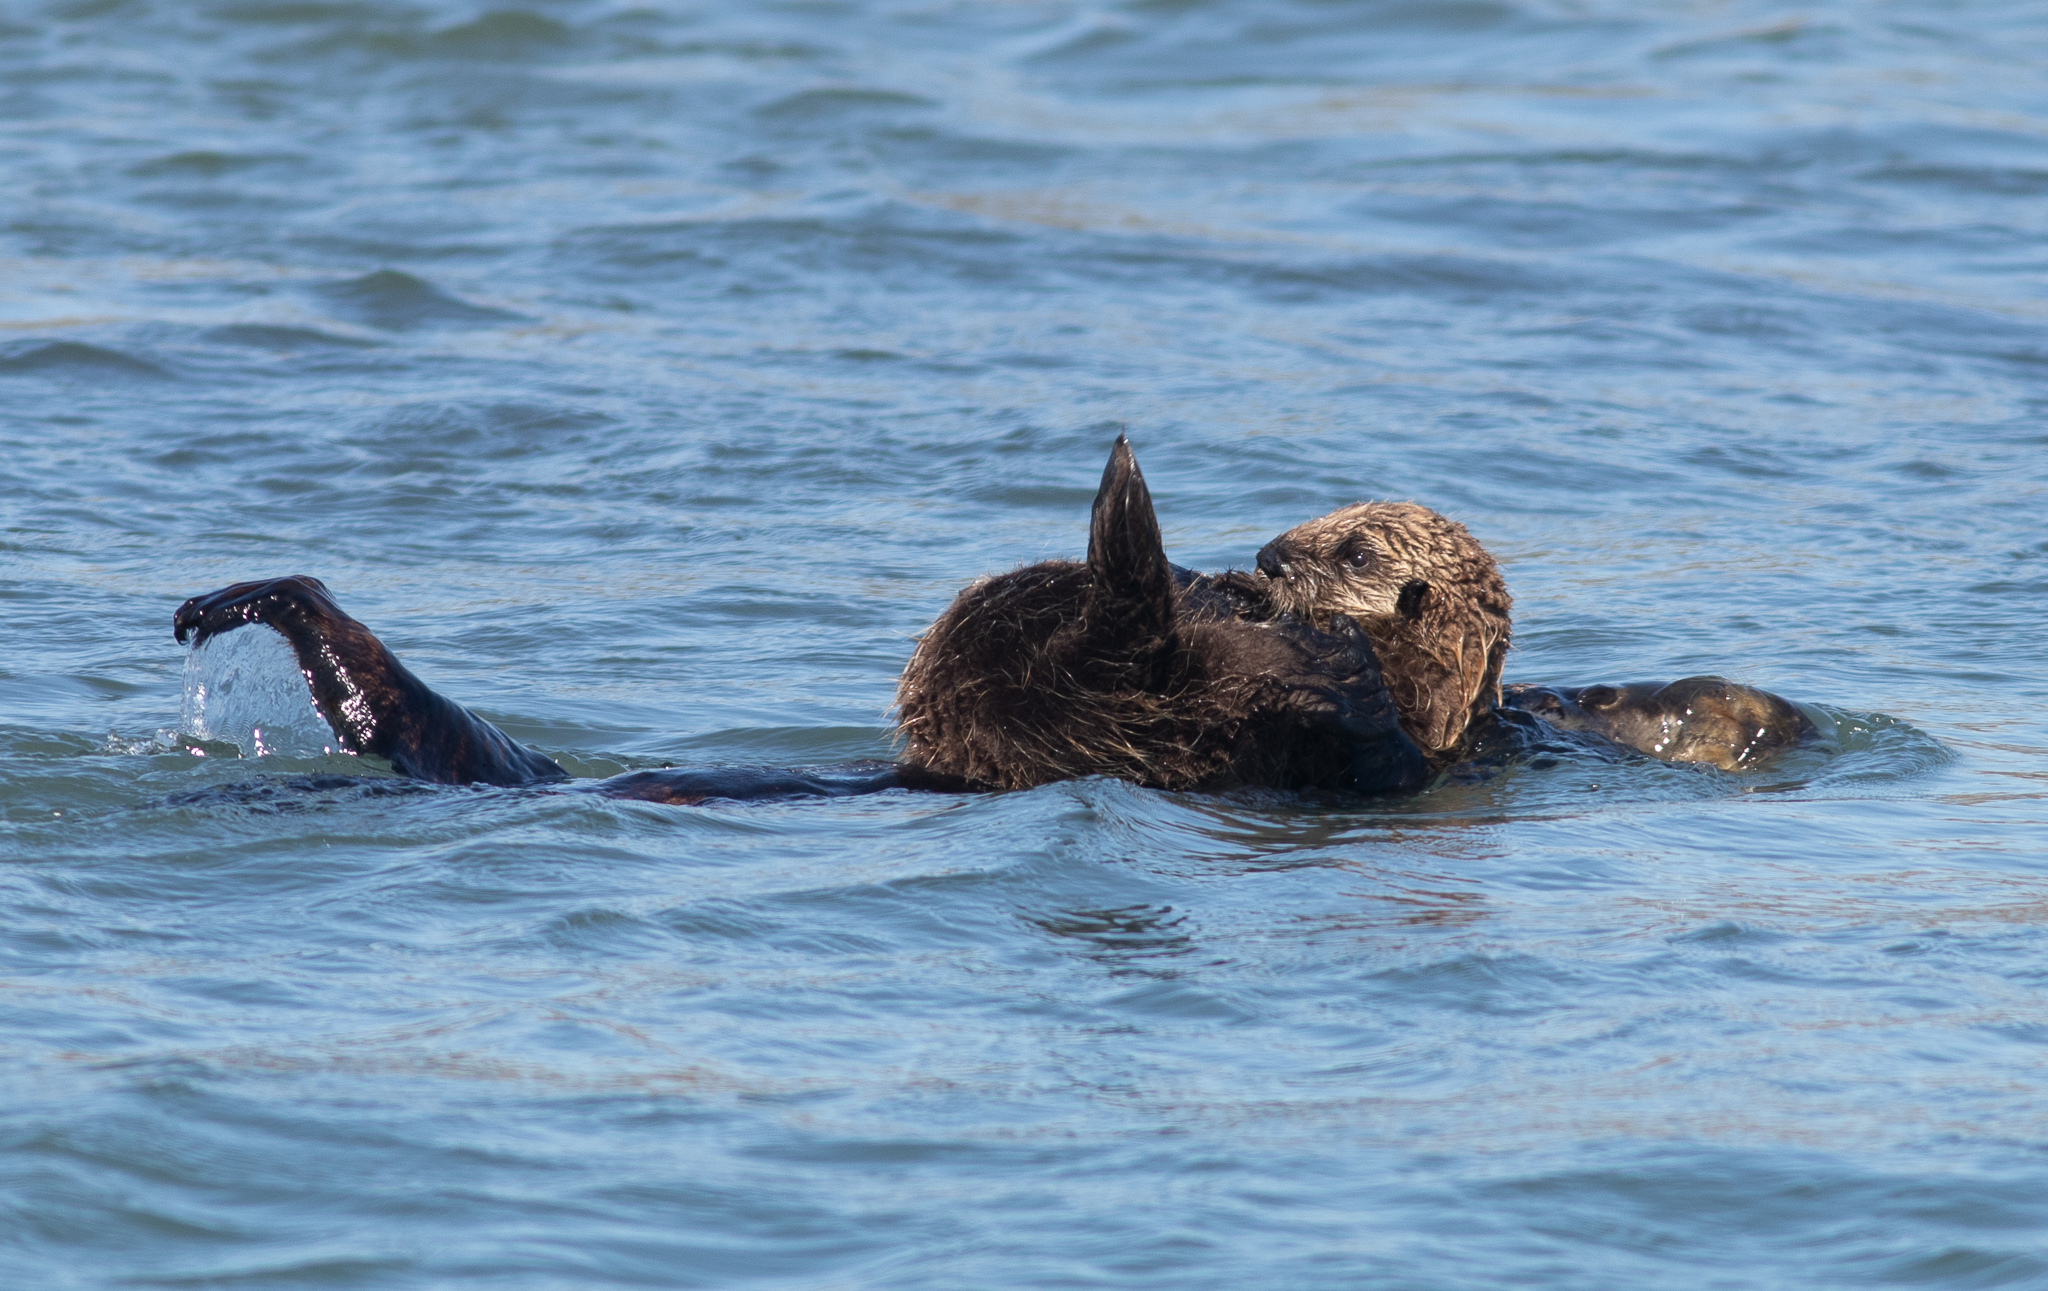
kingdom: Animalia
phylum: Chordata
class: Mammalia
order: Carnivora
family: Mustelidae
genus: Enhydra
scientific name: Enhydra lutris
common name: Sea otter
